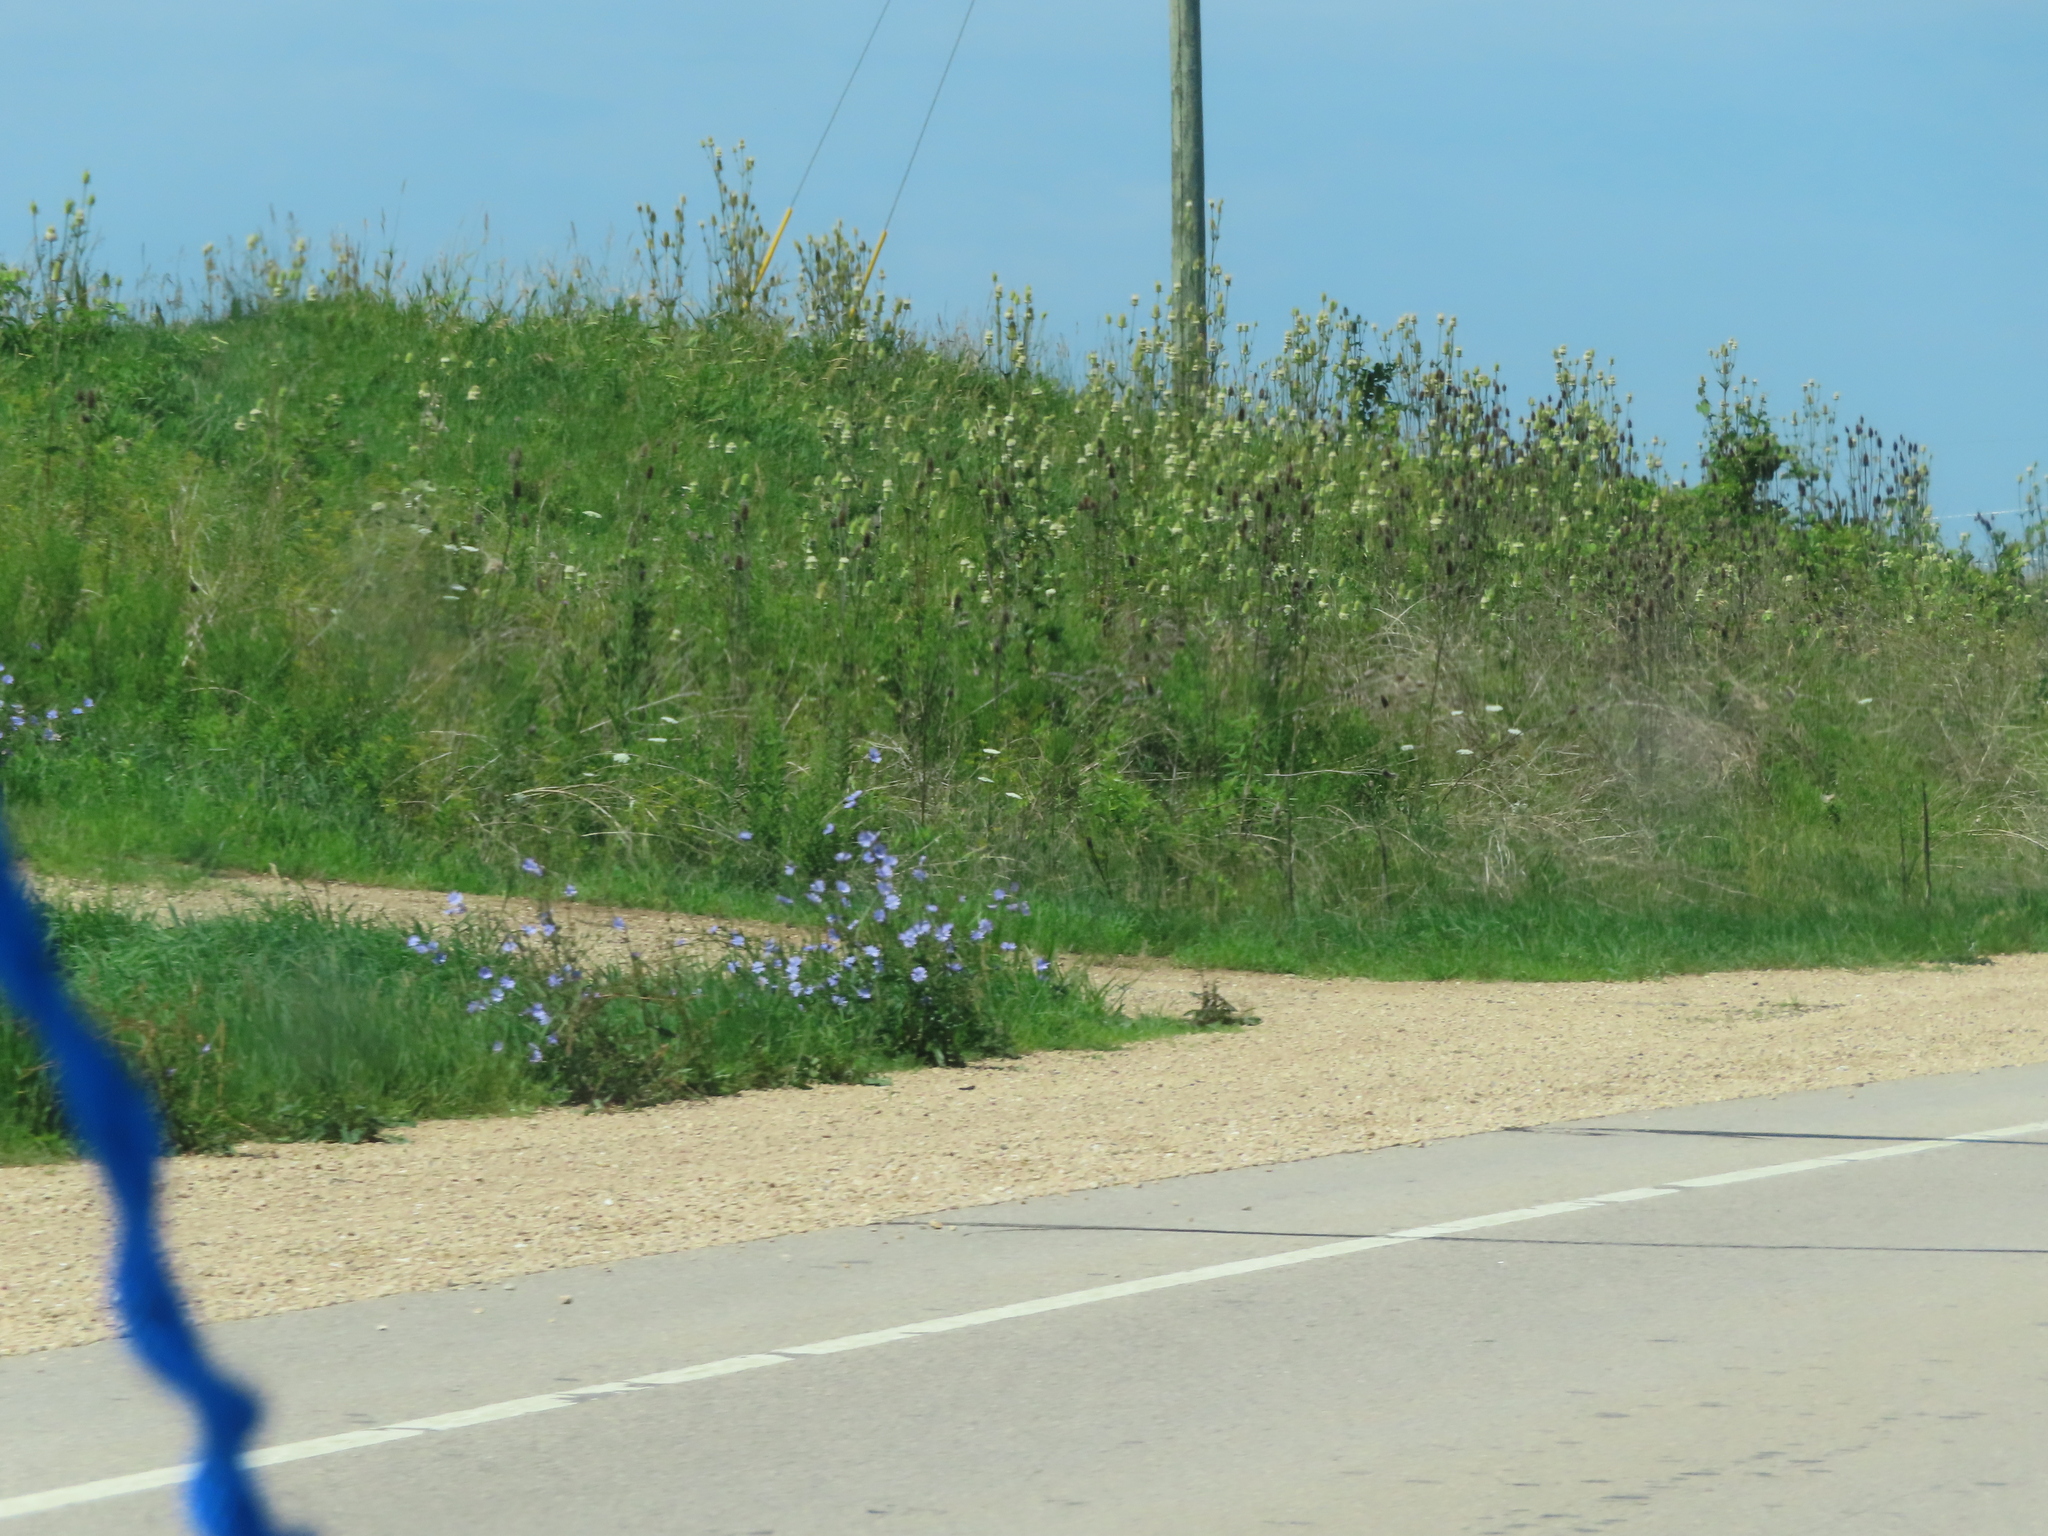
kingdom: Plantae
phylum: Tracheophyta
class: Magnoliopsida
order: Asterales
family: Asteraceae
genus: Cichorium
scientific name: Cichorium intybus
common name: Chicory
